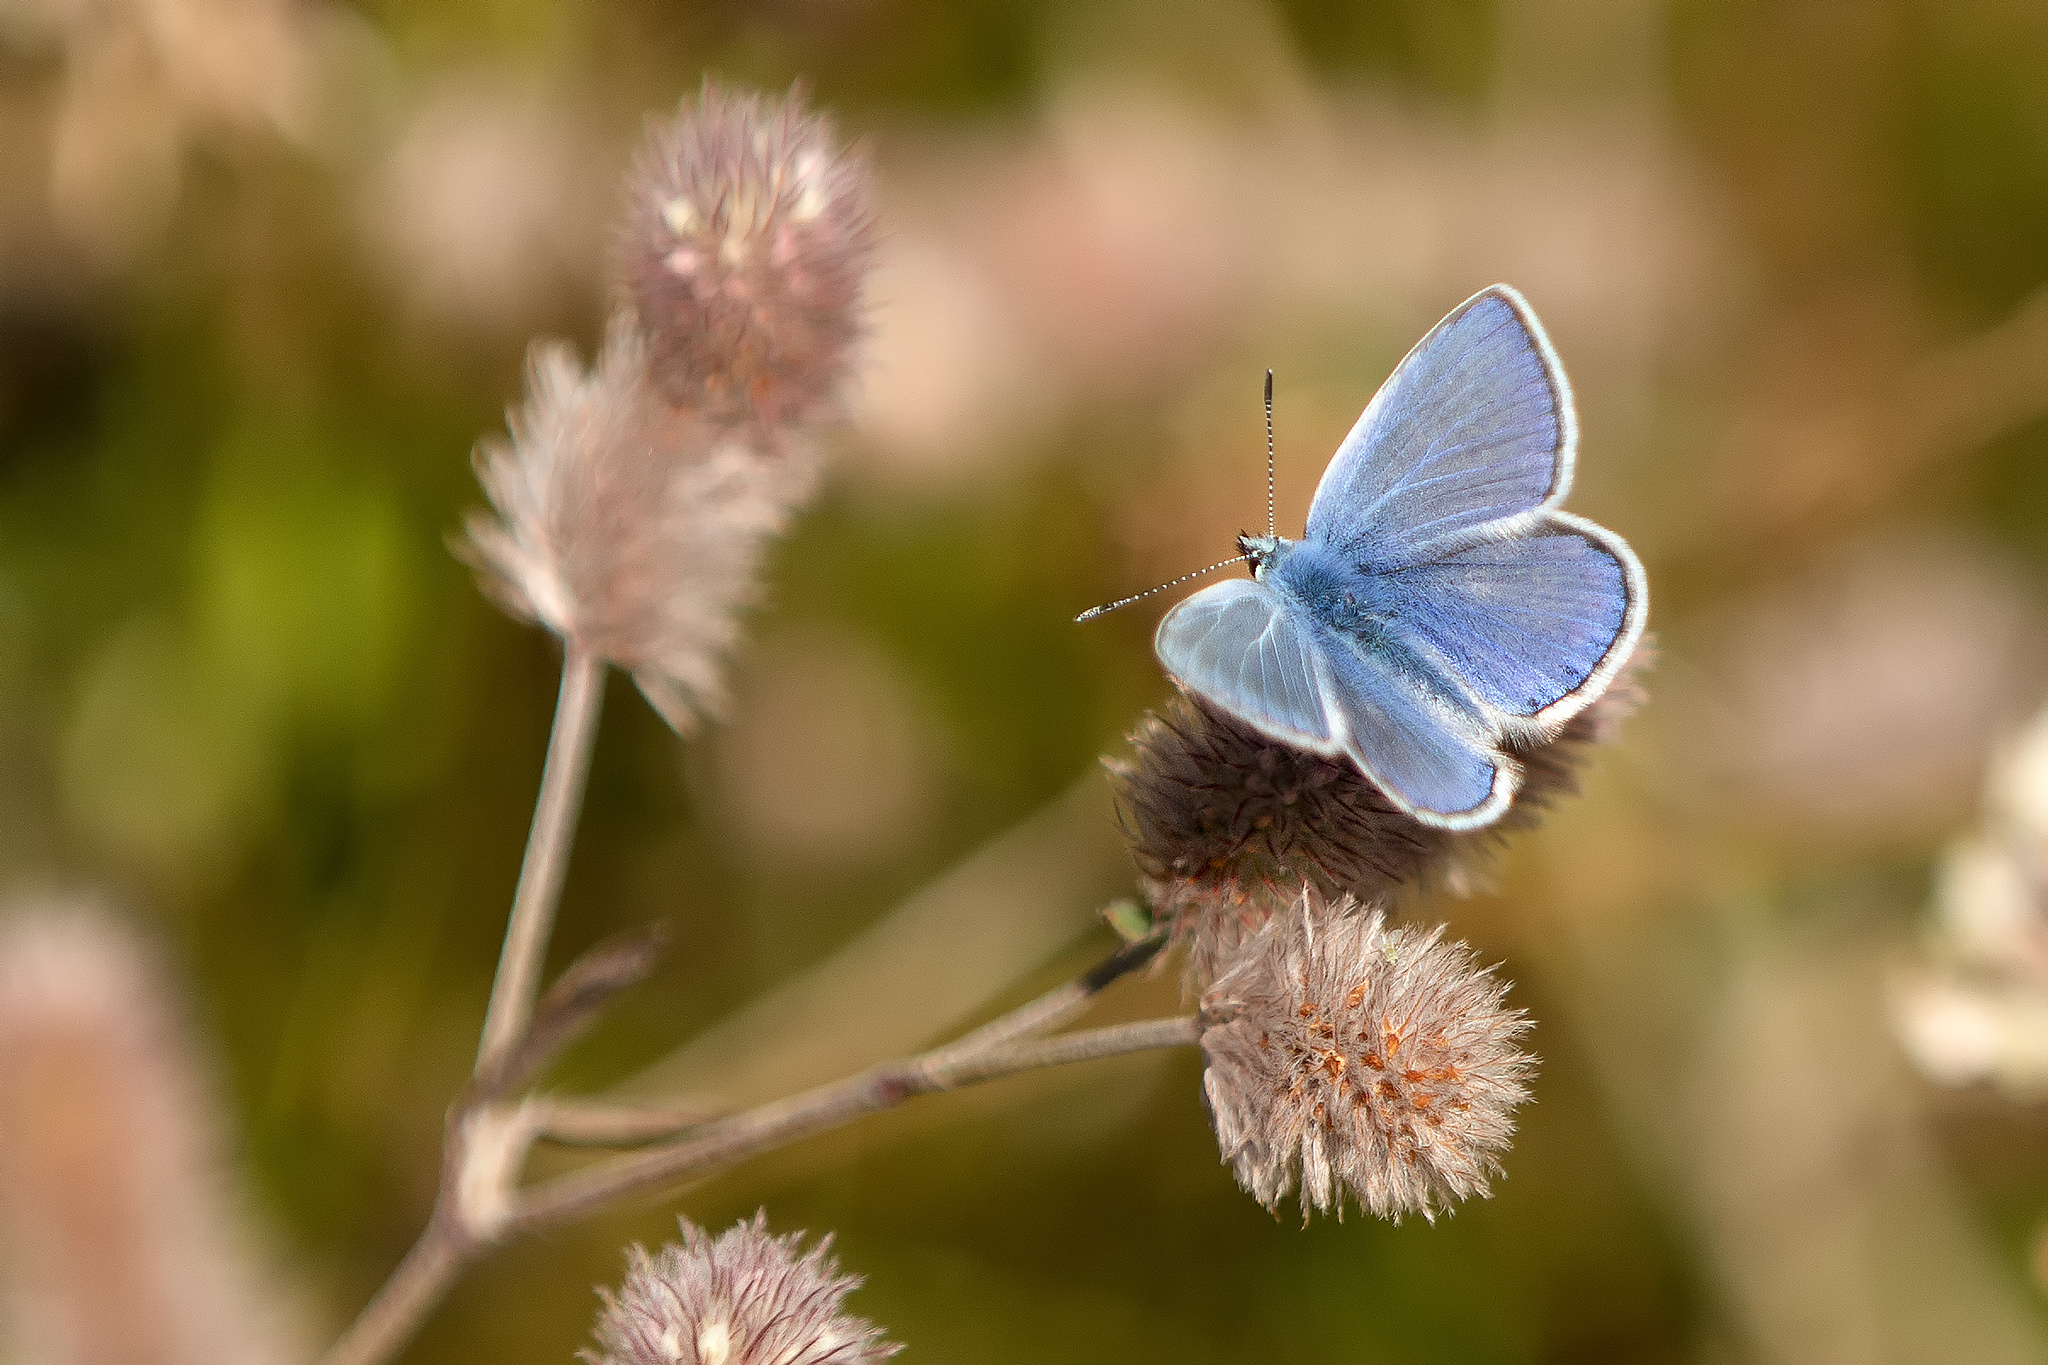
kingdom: Animalia
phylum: Arthropoda
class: Insecta
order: Lepidoptera
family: Lycaenidae
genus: Polyommatus
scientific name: Polyommatus icarus
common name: Common blue
